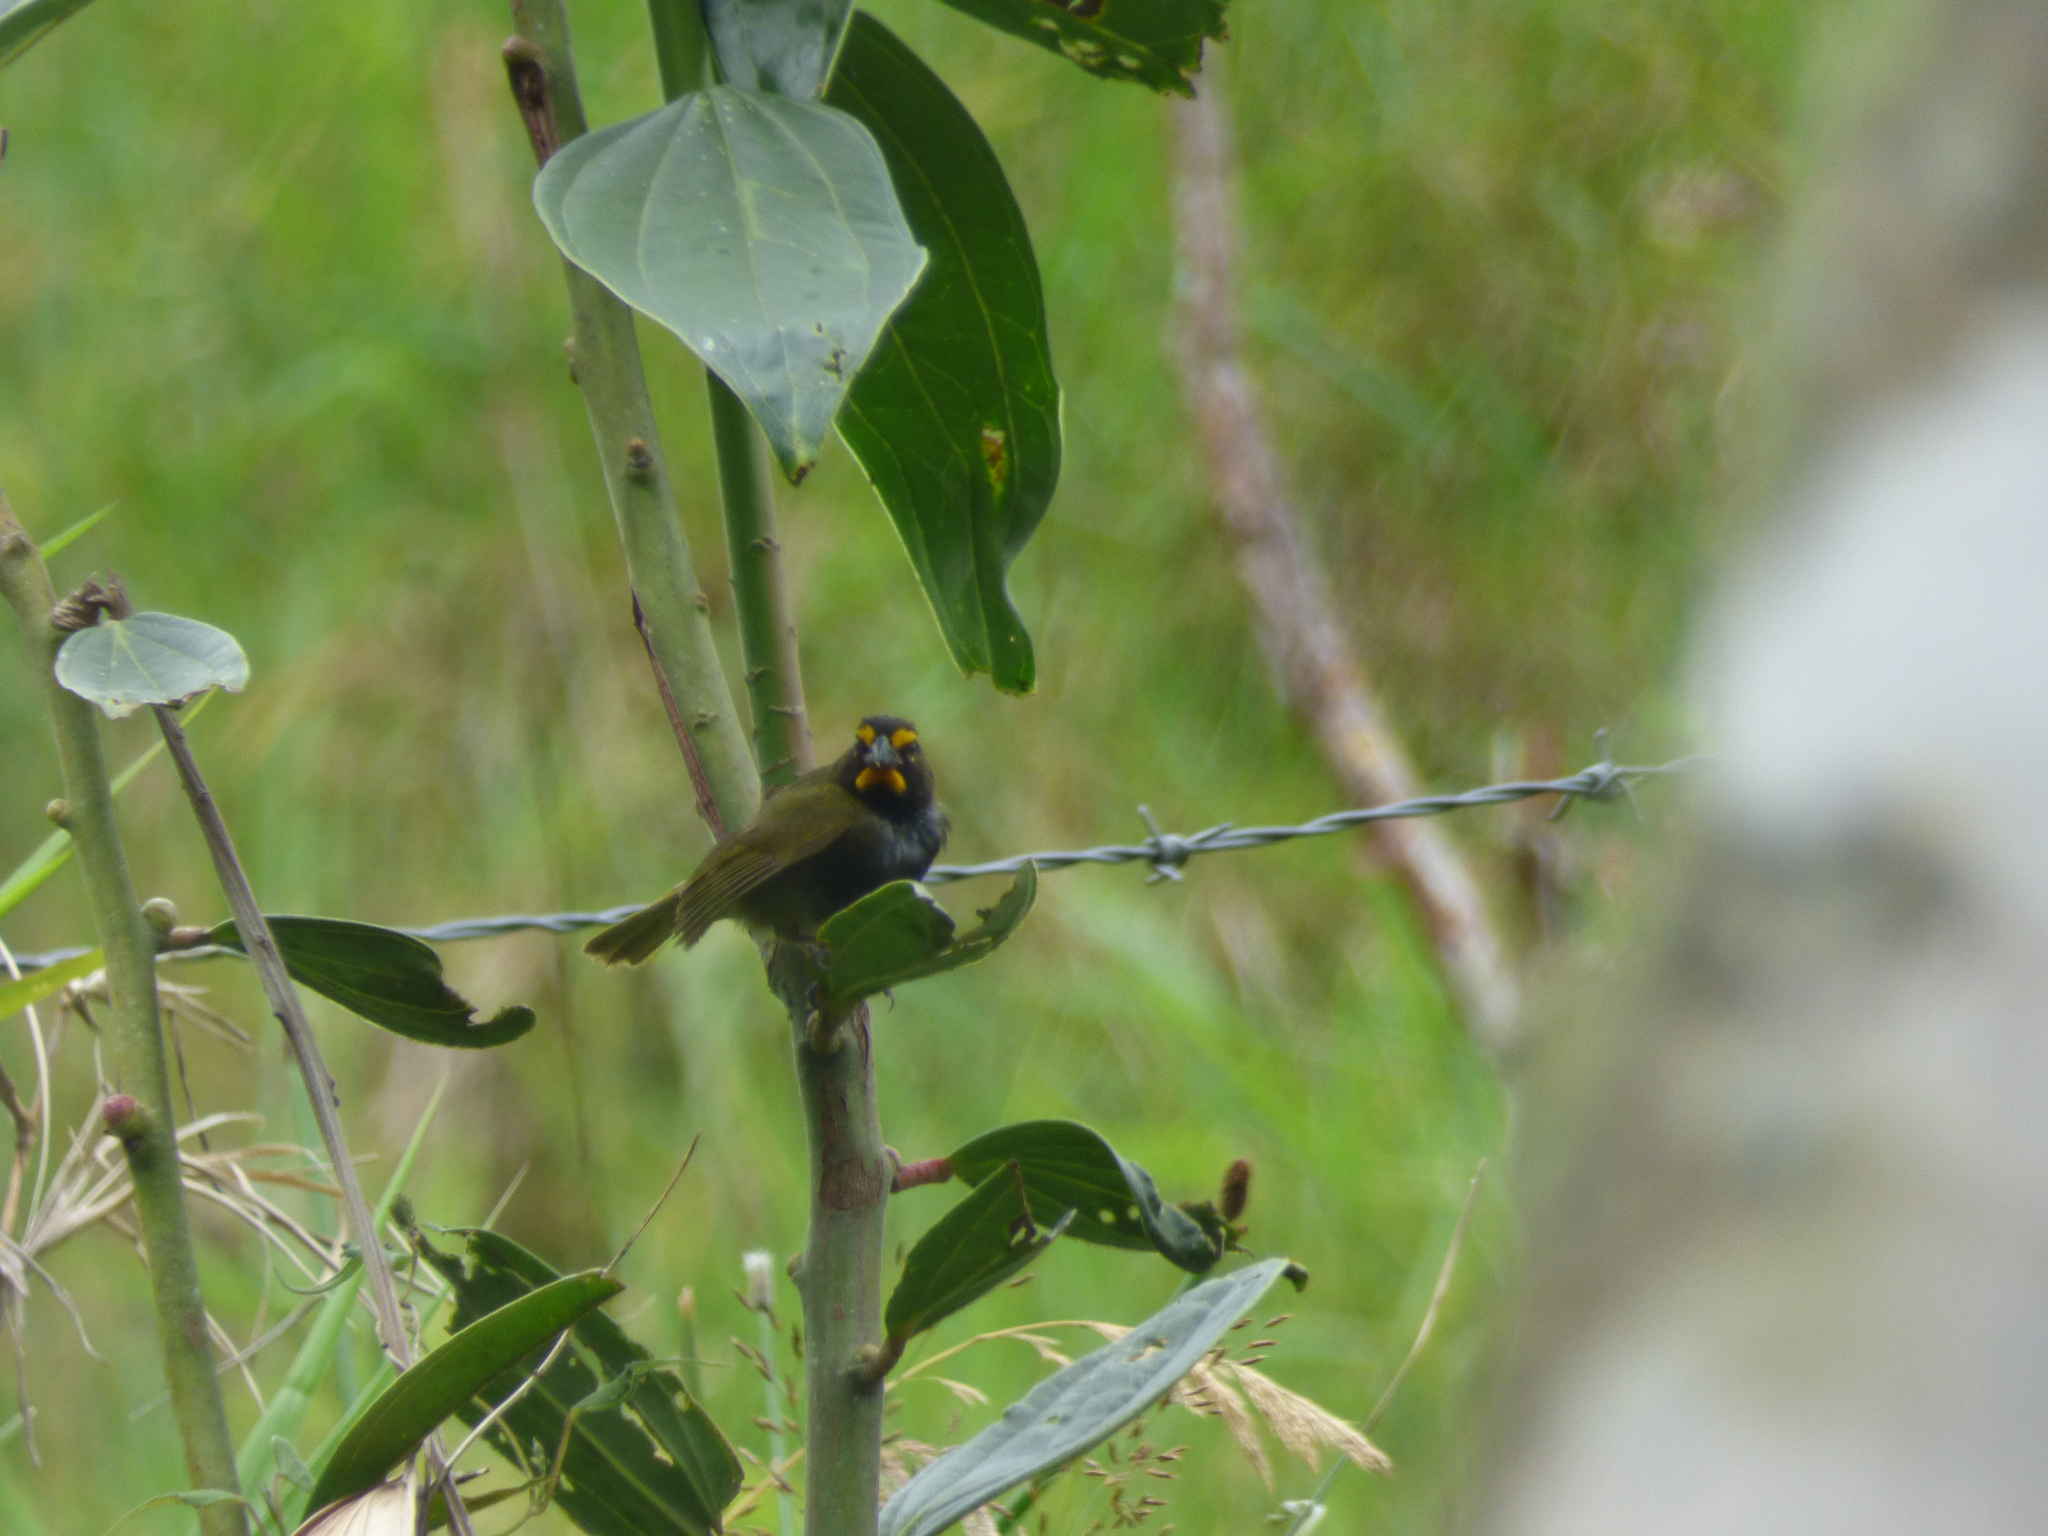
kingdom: Animalia
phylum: Chordata
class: Aves
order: Passeriformes
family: Thraupidae
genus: Tiaris
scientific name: Tiaris olivaceus
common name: Yellow-faced grassquit
